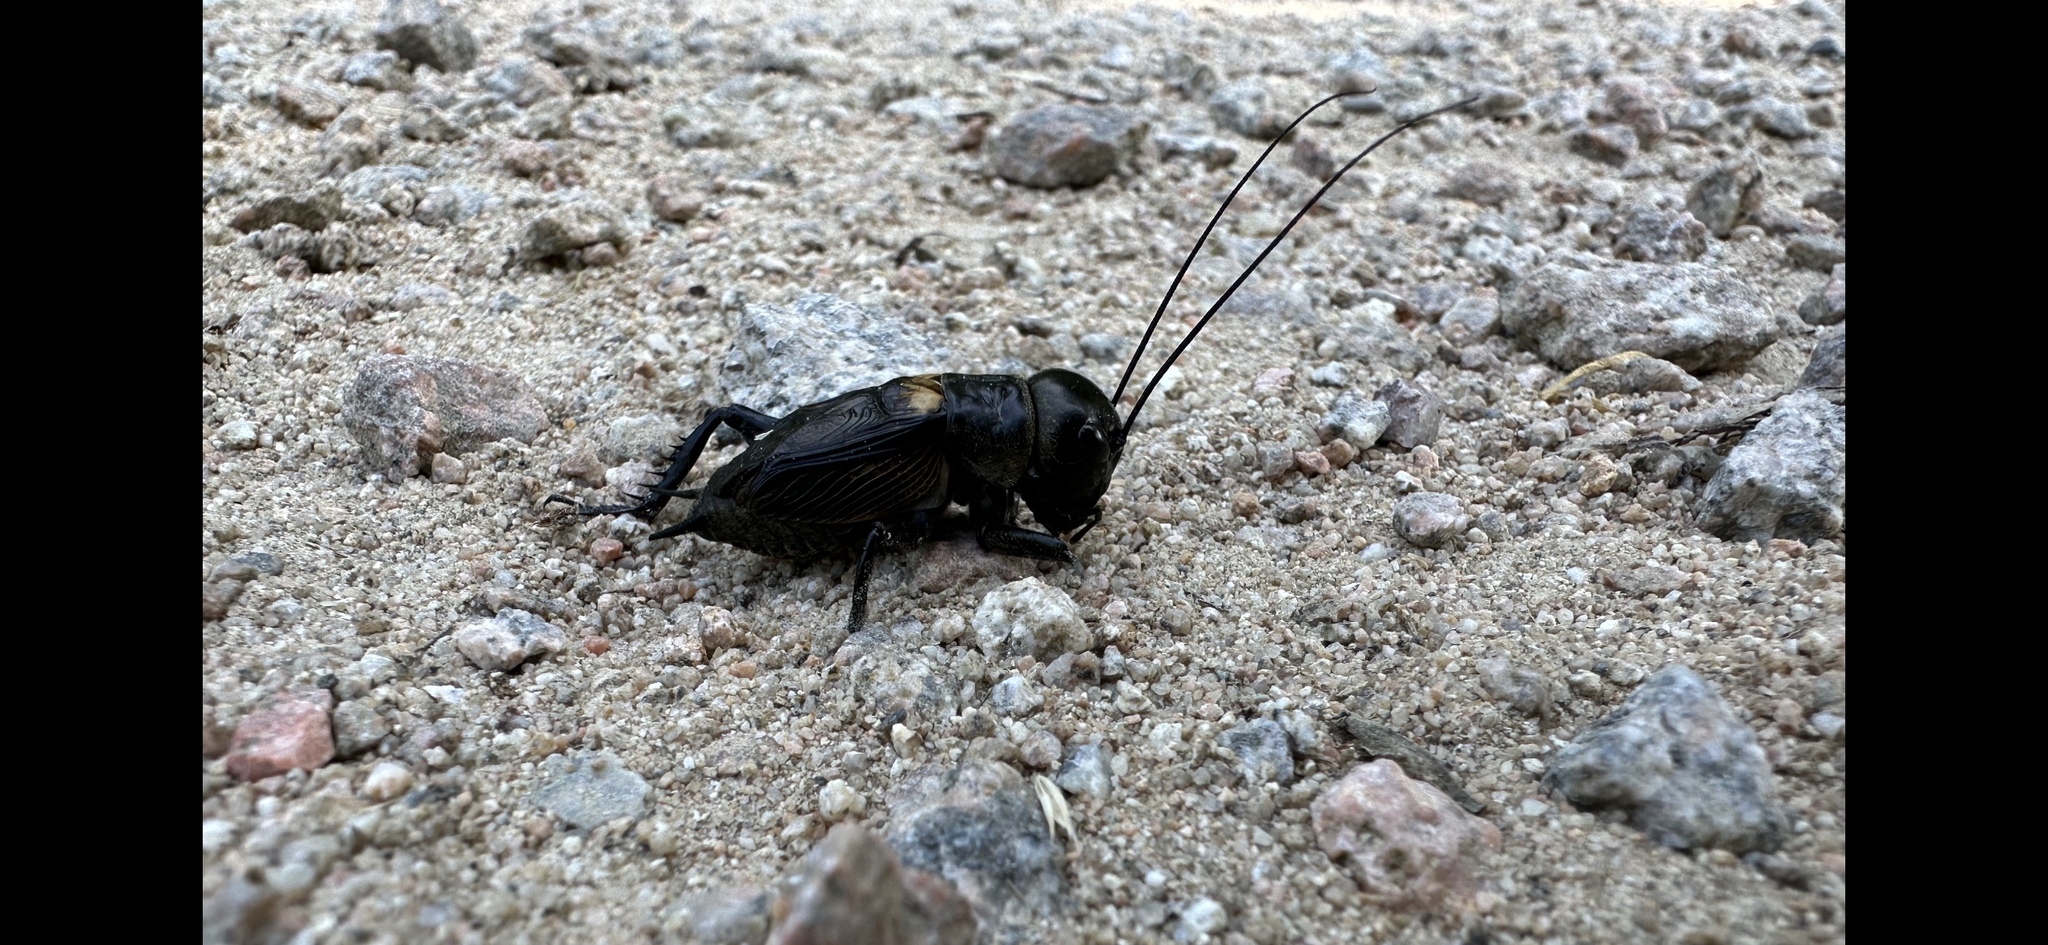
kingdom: Animalia
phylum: Arthropoda
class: Insecta
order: Orthoptera
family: Gryllidae
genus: Gryllus
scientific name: Gryllus campestris
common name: Field cricket
